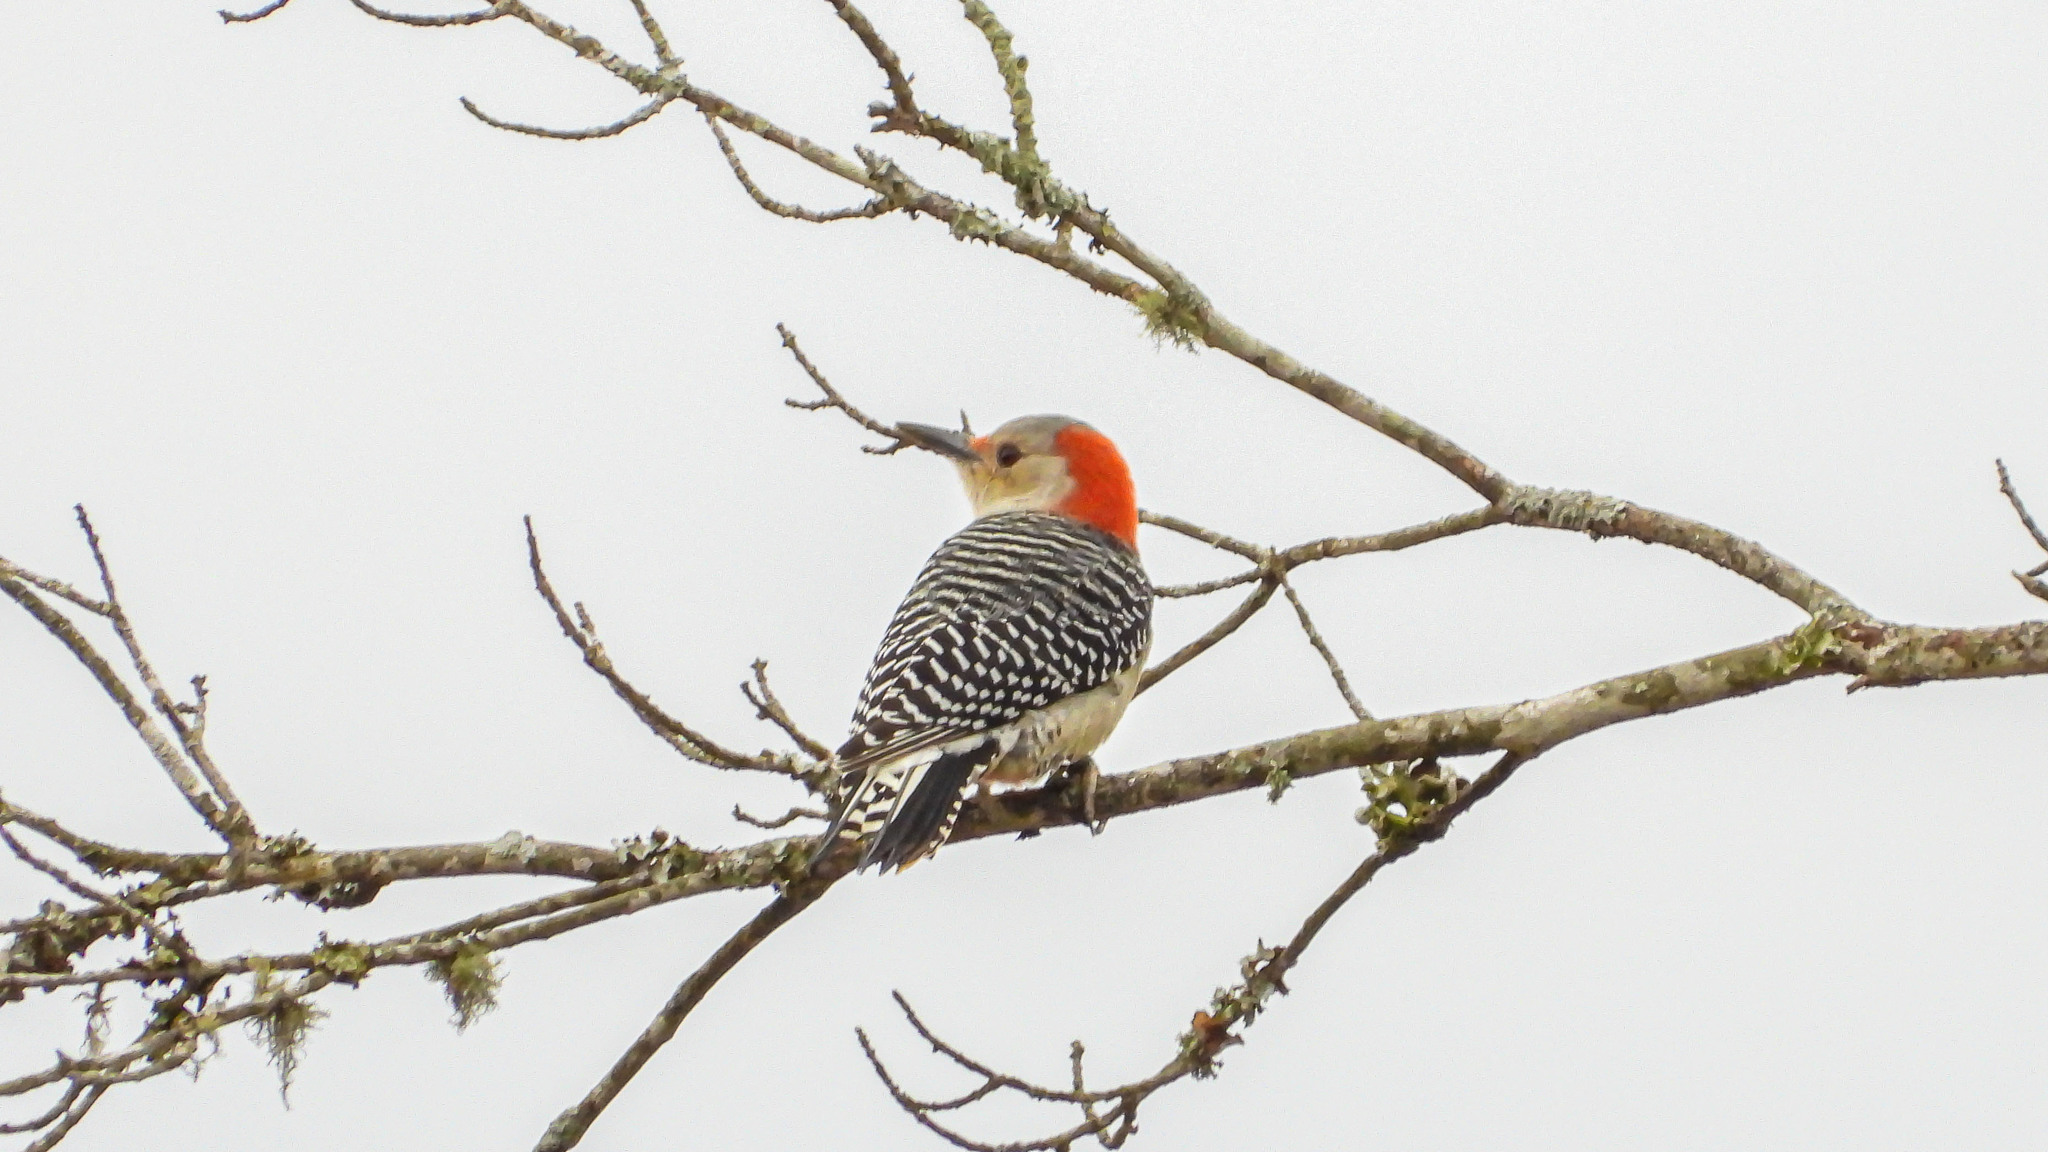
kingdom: Animalia
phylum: Chordata
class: Aves
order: Piciformes
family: Picidae
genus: Melanerpes
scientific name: Melanerpes carolinus
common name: Red-bellied woodpecker
